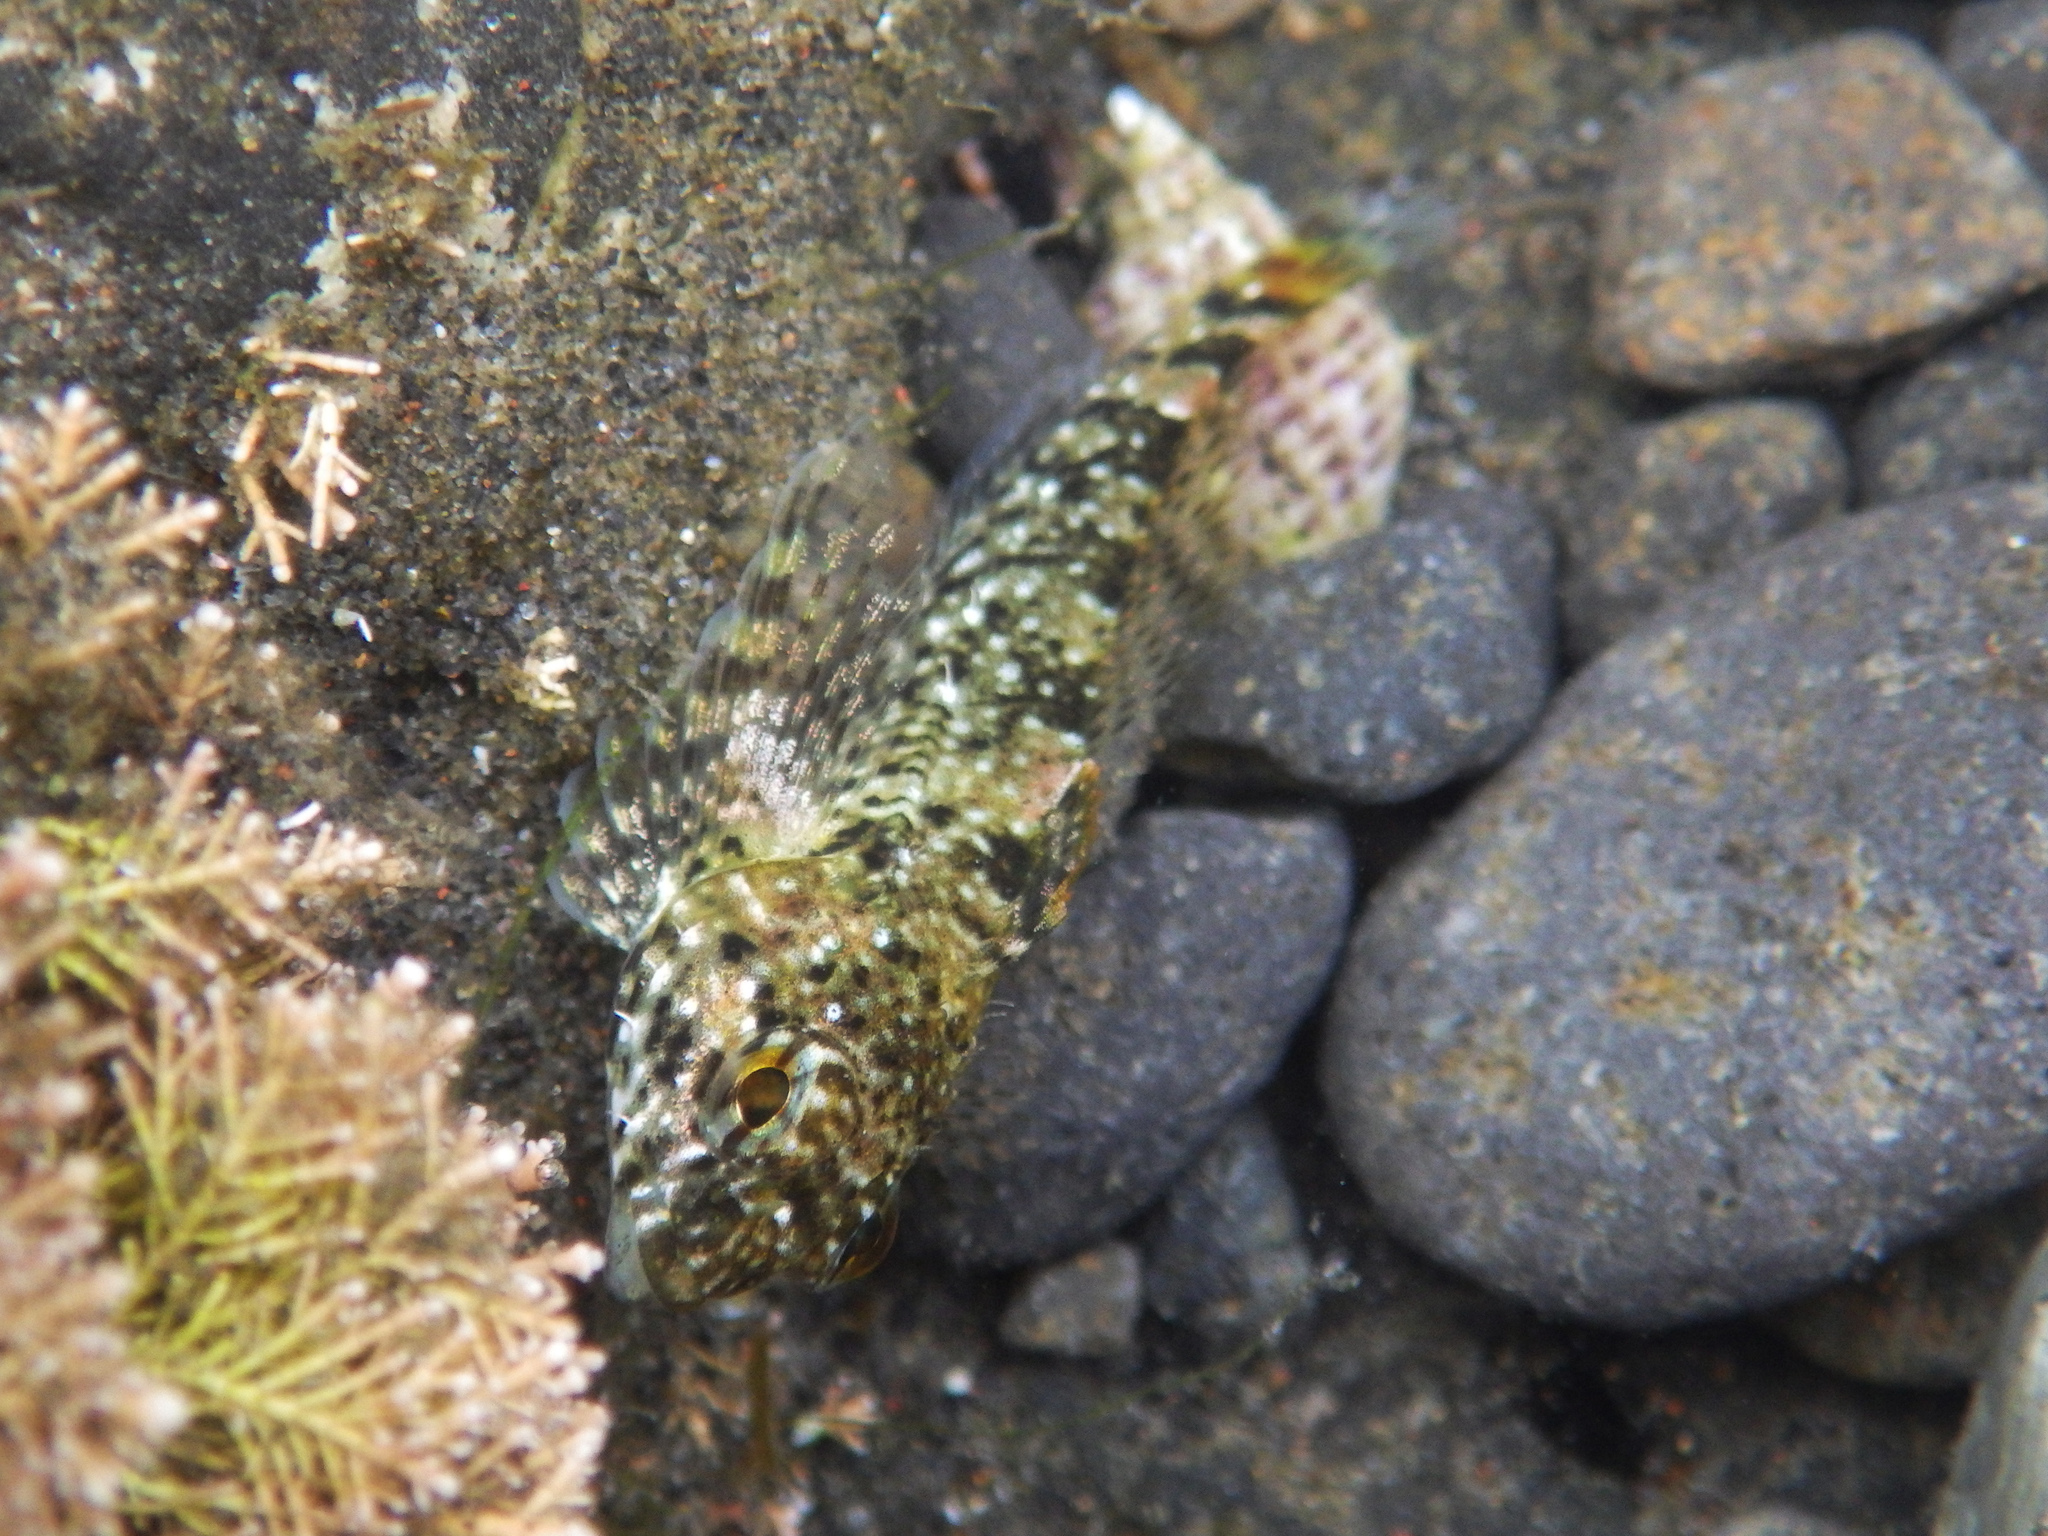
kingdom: Animalia
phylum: Chordata
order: Scorpaeniformes
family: Cottidae
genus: Clinocottus
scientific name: Clinocottus analis
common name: Woolly sculpin
